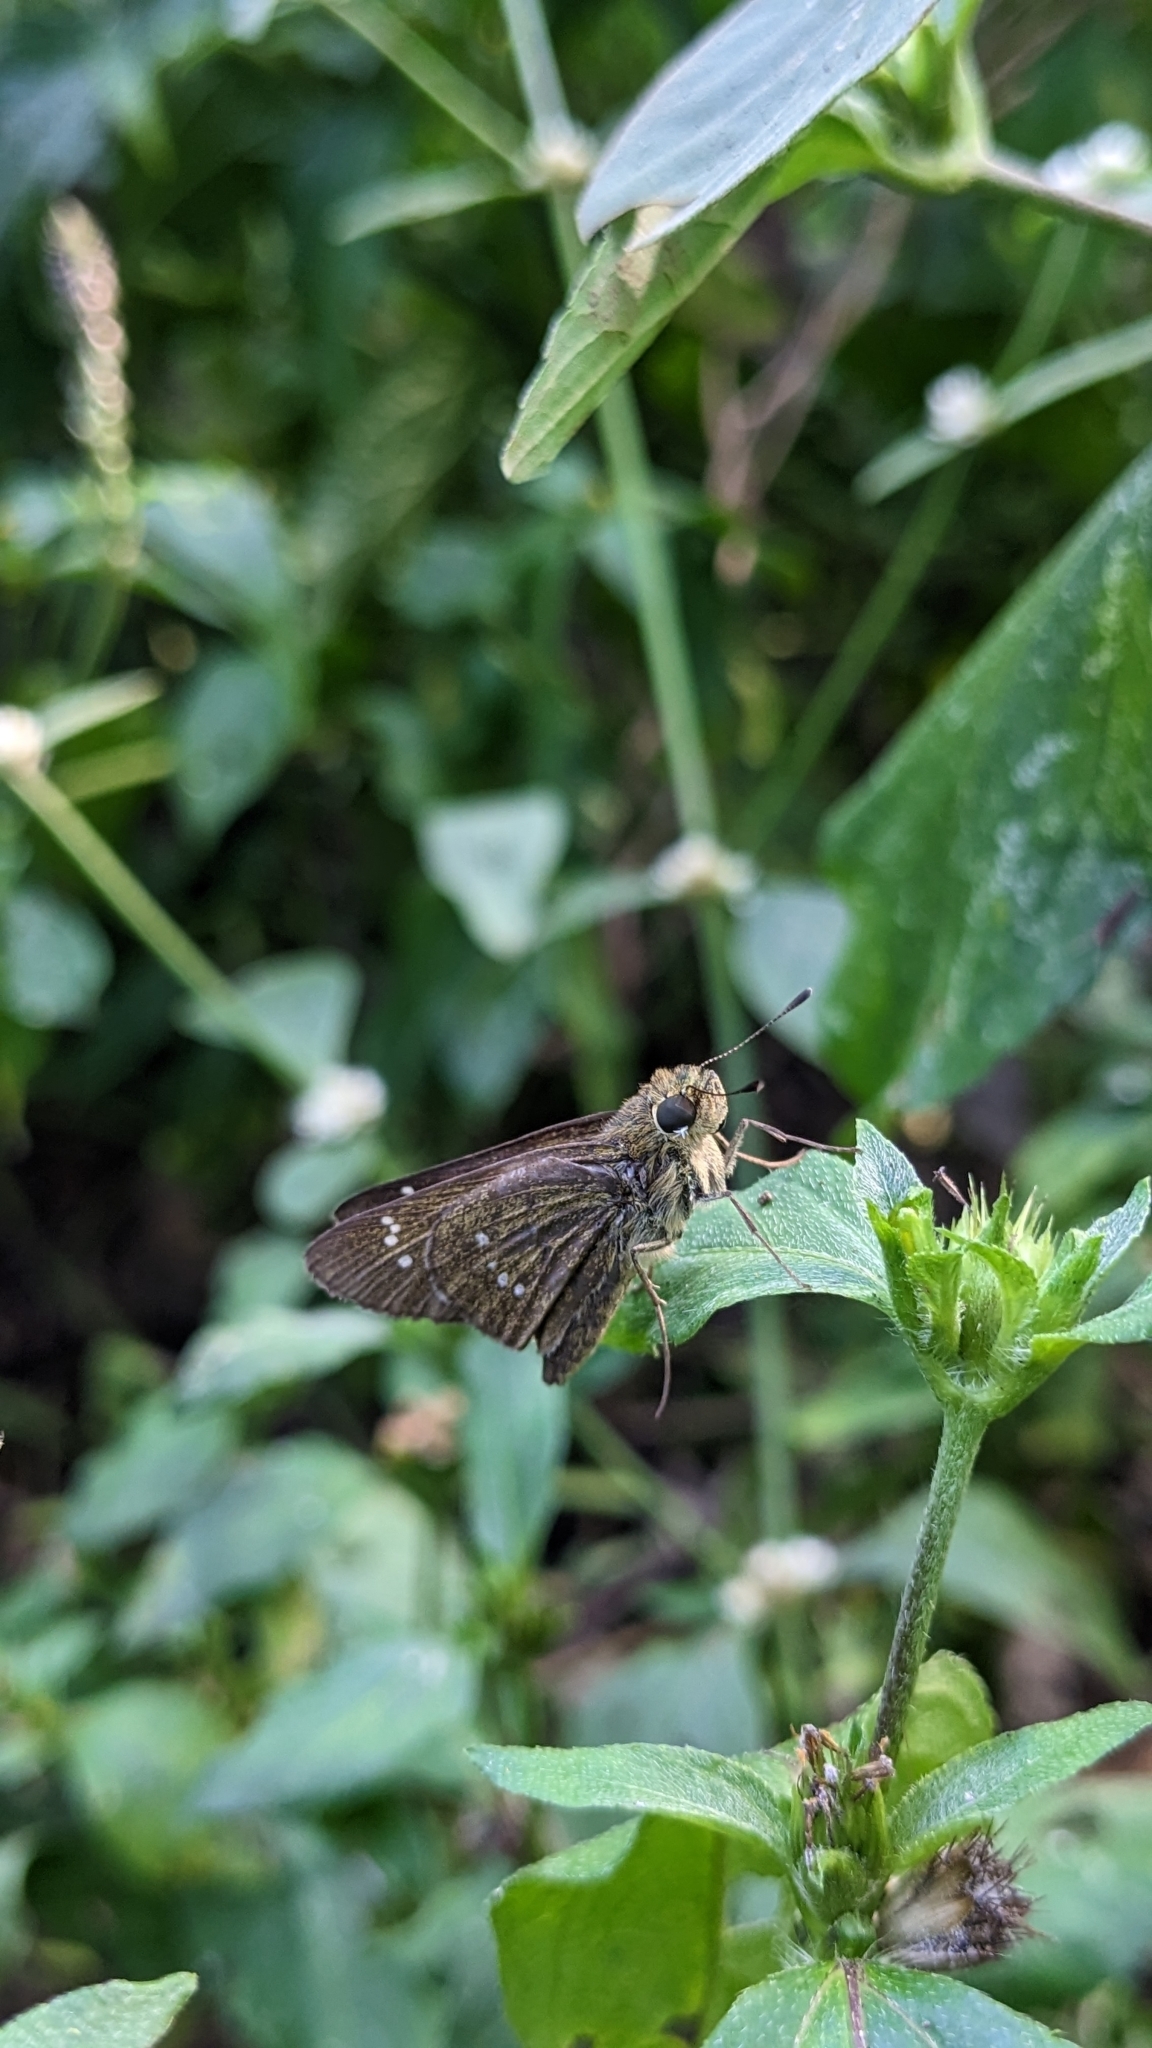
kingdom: Animalia
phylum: Arthropoda
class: Insecta
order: Lepidoptera
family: Hesperiidae
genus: Borbo
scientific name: Borbo cinnara
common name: Formosan swift
